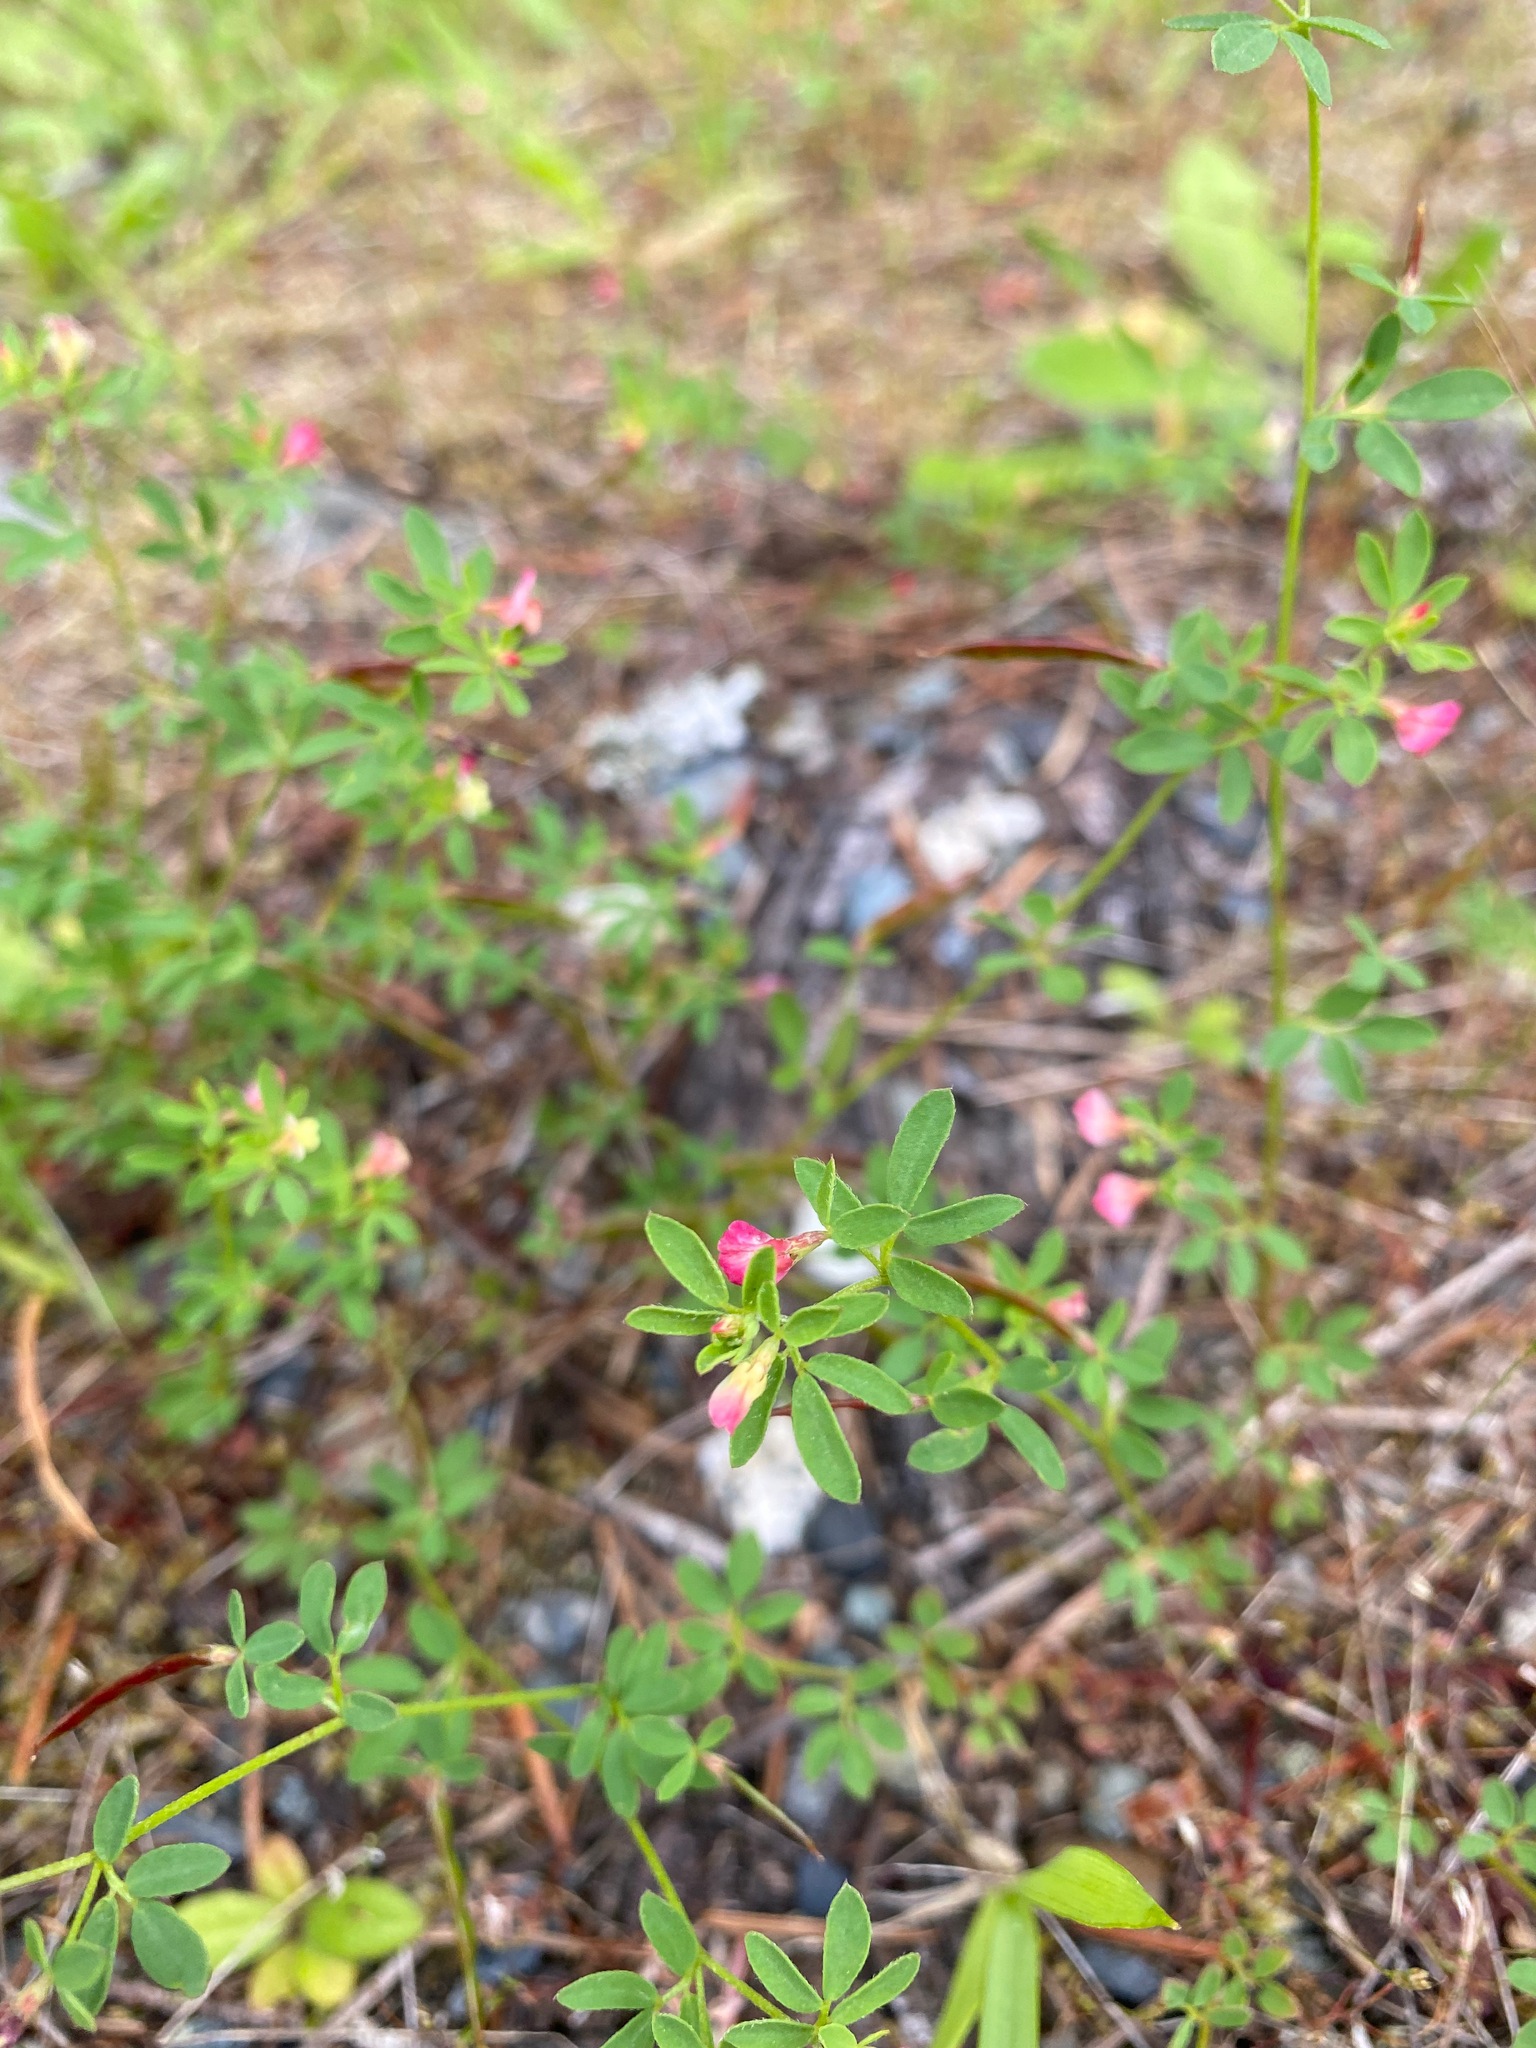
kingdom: Plantae
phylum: Tracheophyta
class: Magnoliopsida
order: Fabales
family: Fabaceae
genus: Acmispon
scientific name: Acmispon parviflorus
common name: Desert deer-vetch
